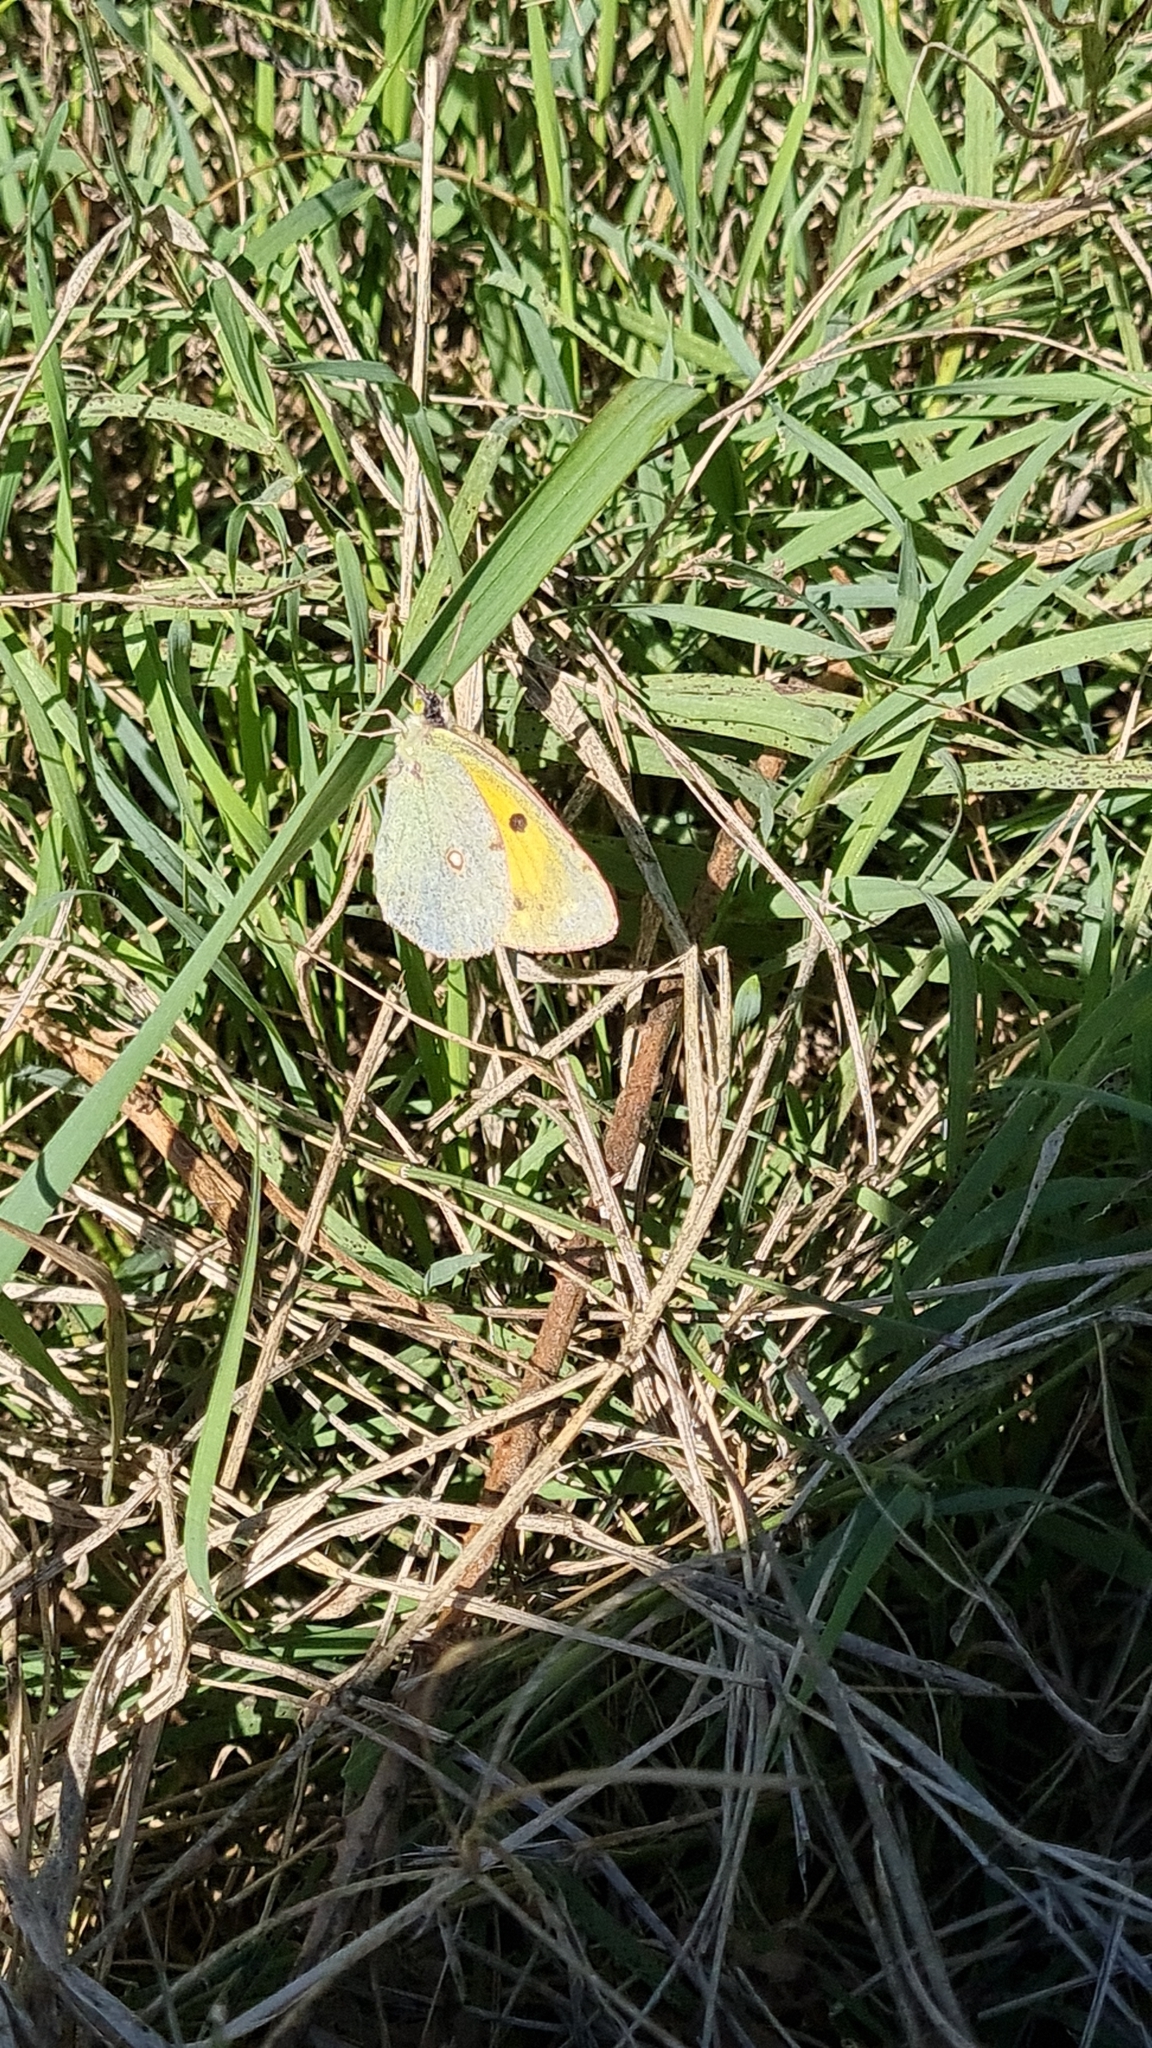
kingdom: Animalia
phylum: Arthropoda
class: Insecta
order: Lepidoptera
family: Pieridae
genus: Colias
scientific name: Colias croceus
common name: Clouded yellow
